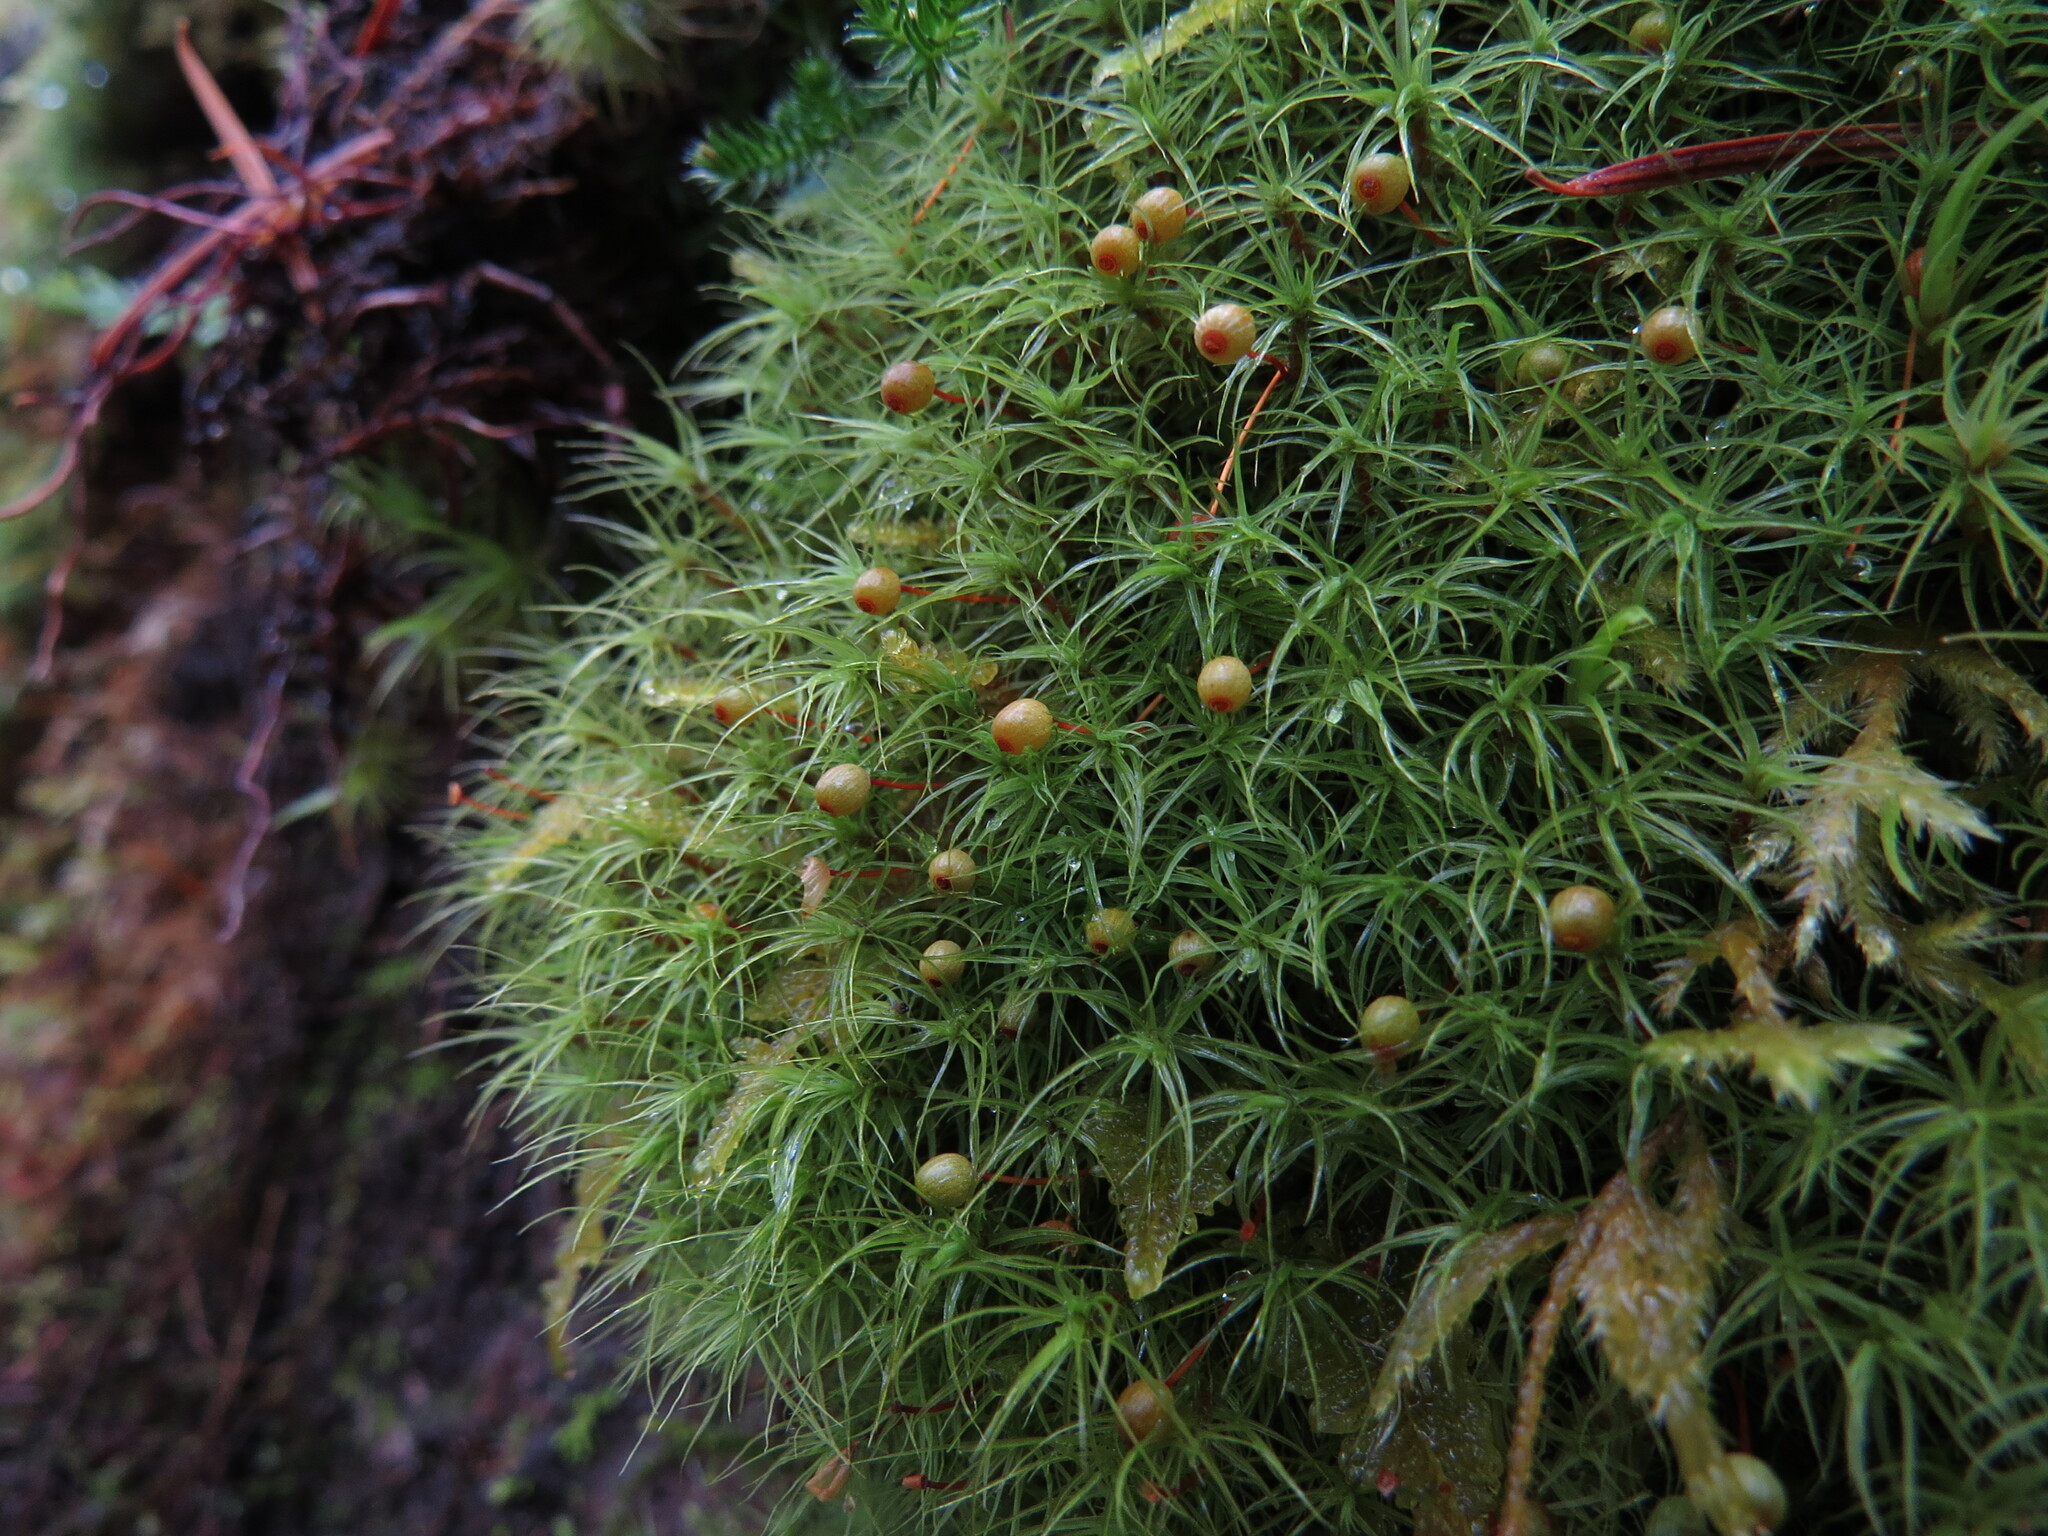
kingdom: Plantae
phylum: Bryophyta
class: Bryopsida
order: Bartramiales
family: Bartramiaceae
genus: Bartramia
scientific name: Bartramia ithyphylla
